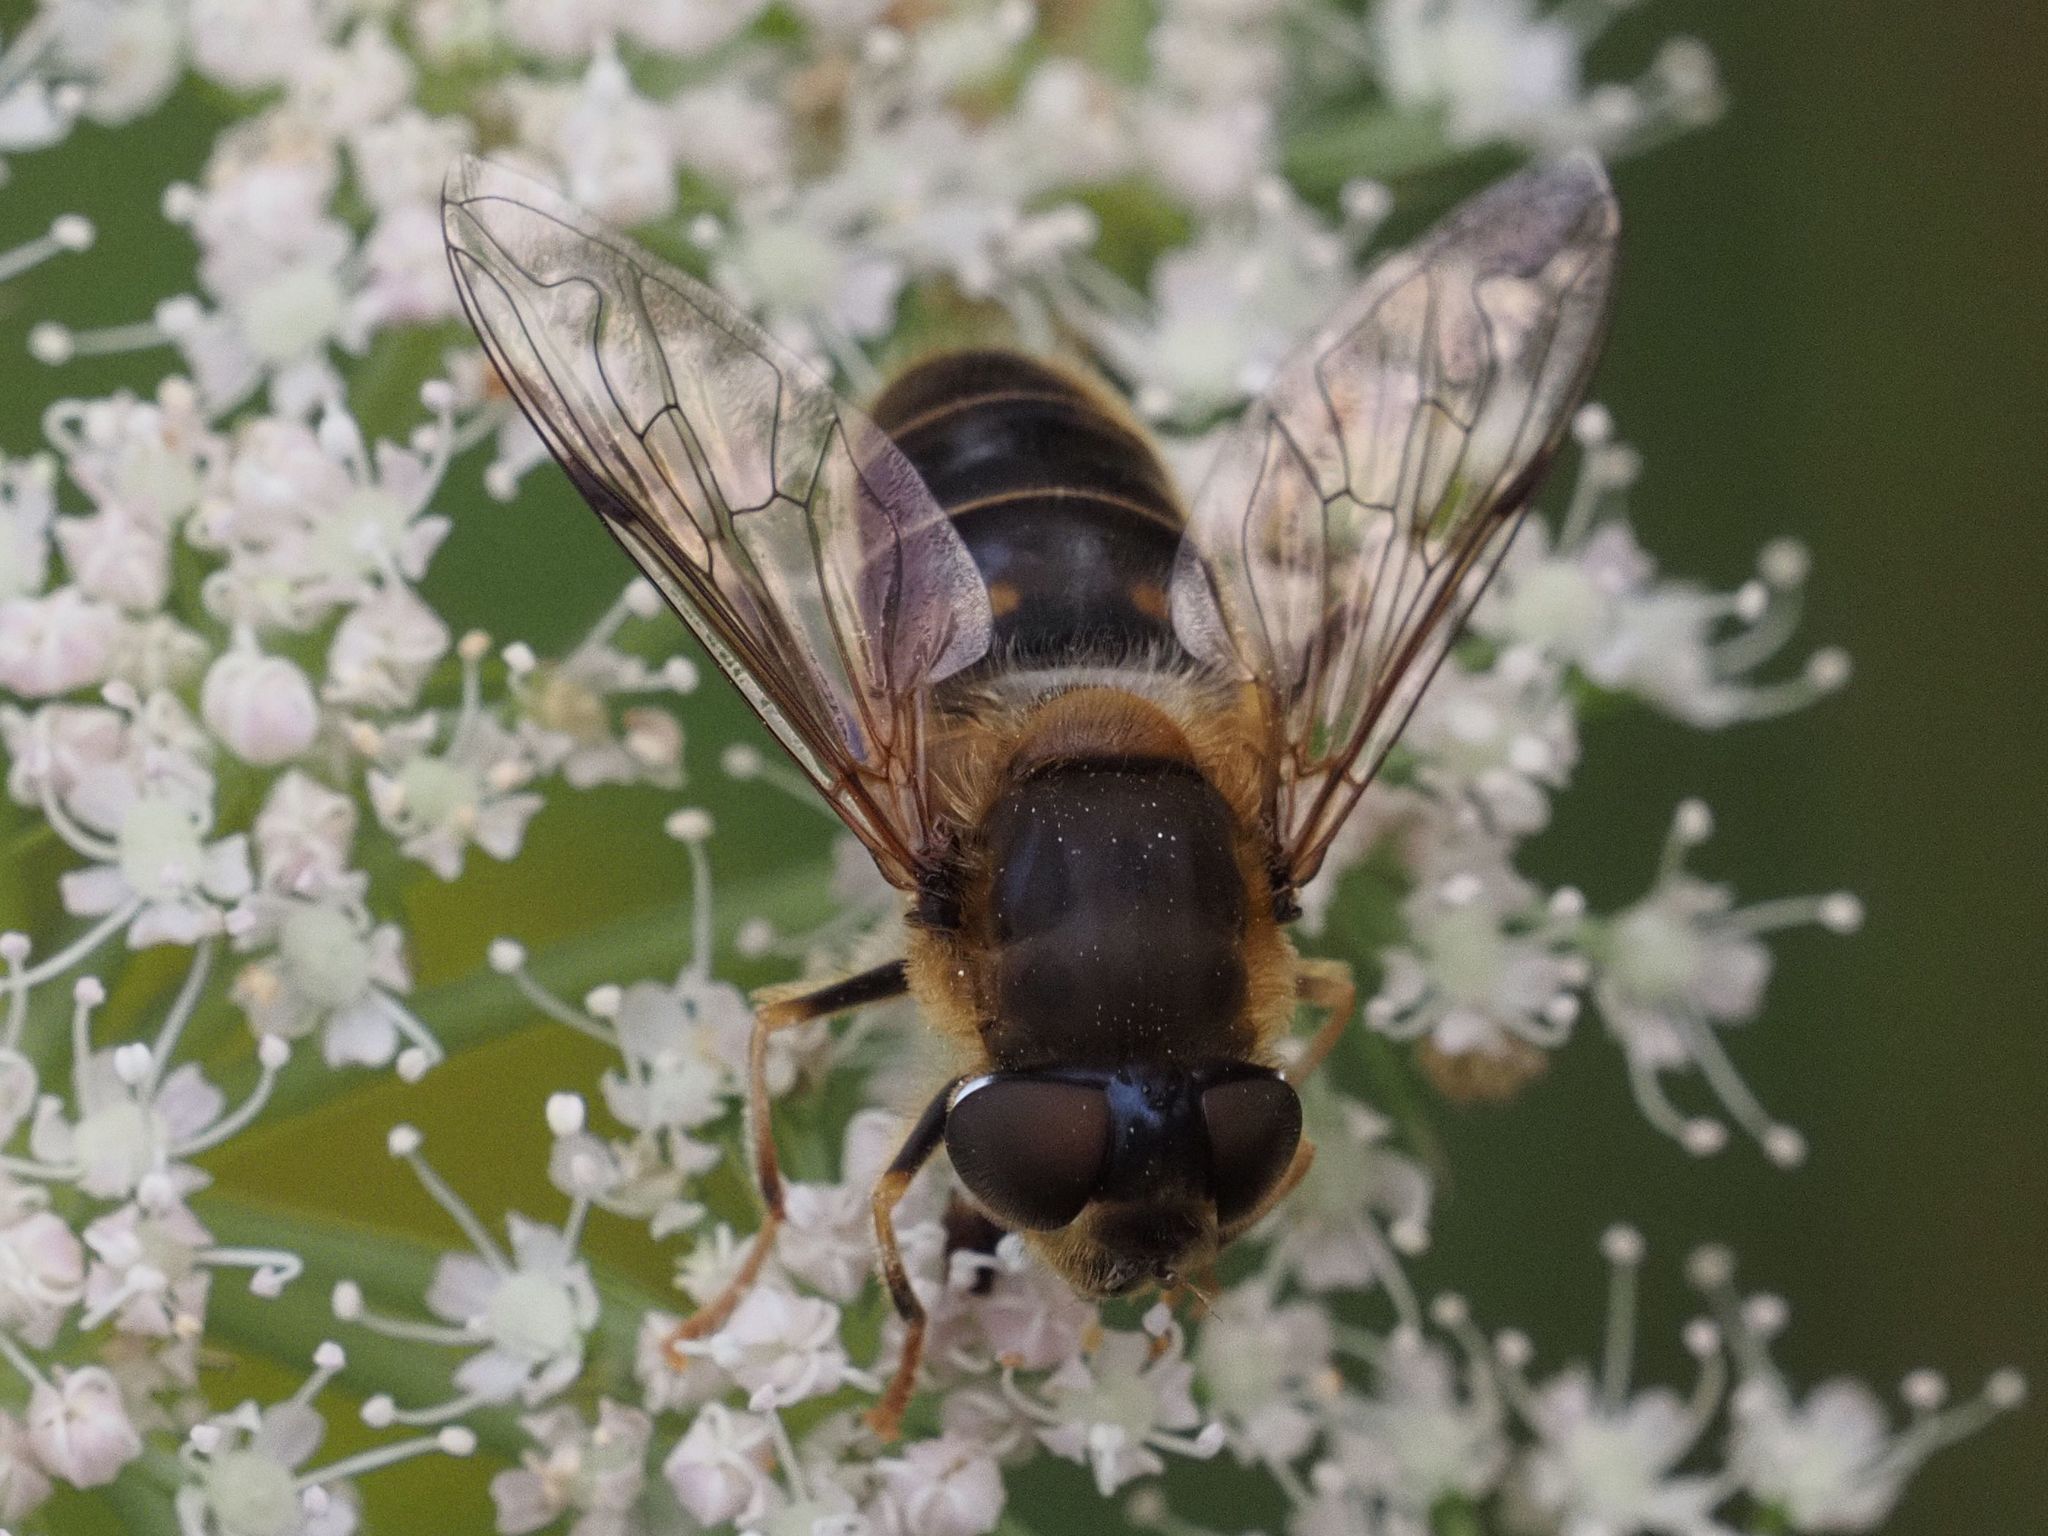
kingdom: Animalia
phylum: Arthropoda
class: Insecta
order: Diptera
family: Syrphidae
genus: Eristalis
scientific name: Eristalis pertinax
